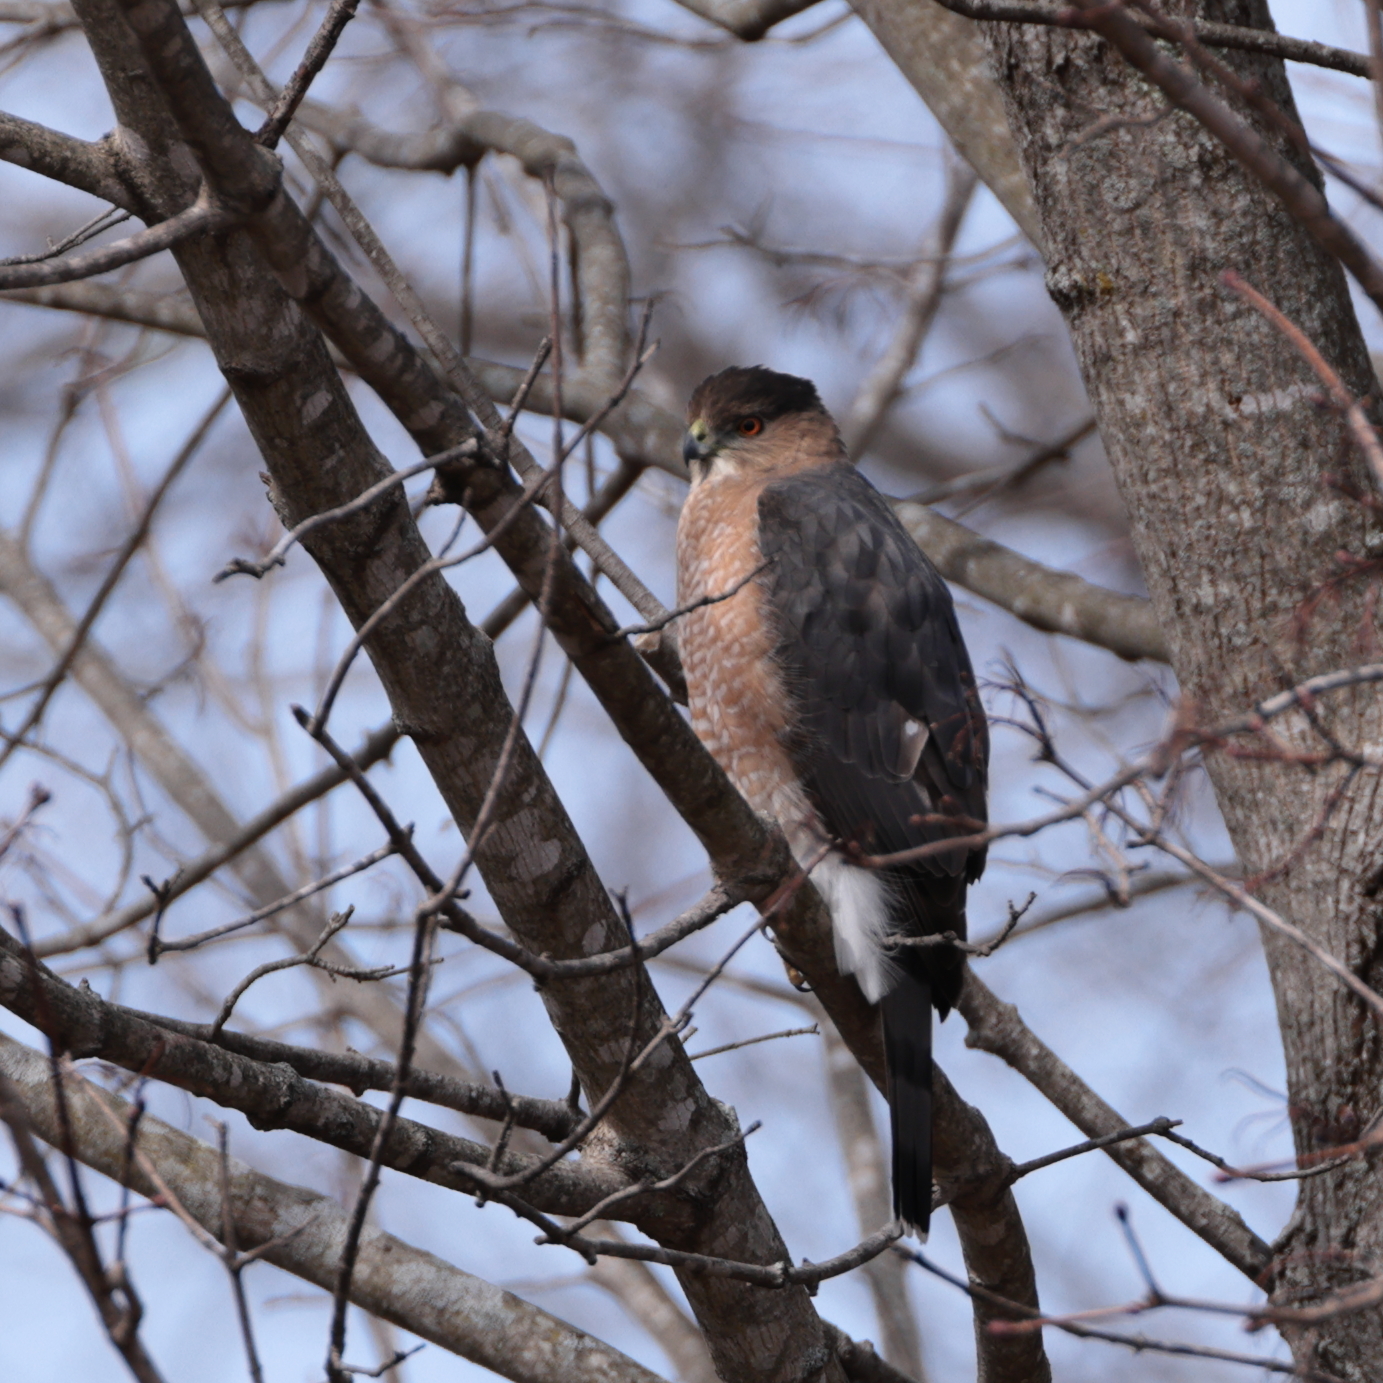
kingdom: Animalia
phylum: Chordata
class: Aves
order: Accipitriformes
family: Accipitridae
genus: Accipiter
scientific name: Accipiter cooperii
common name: Cooper's hawk
